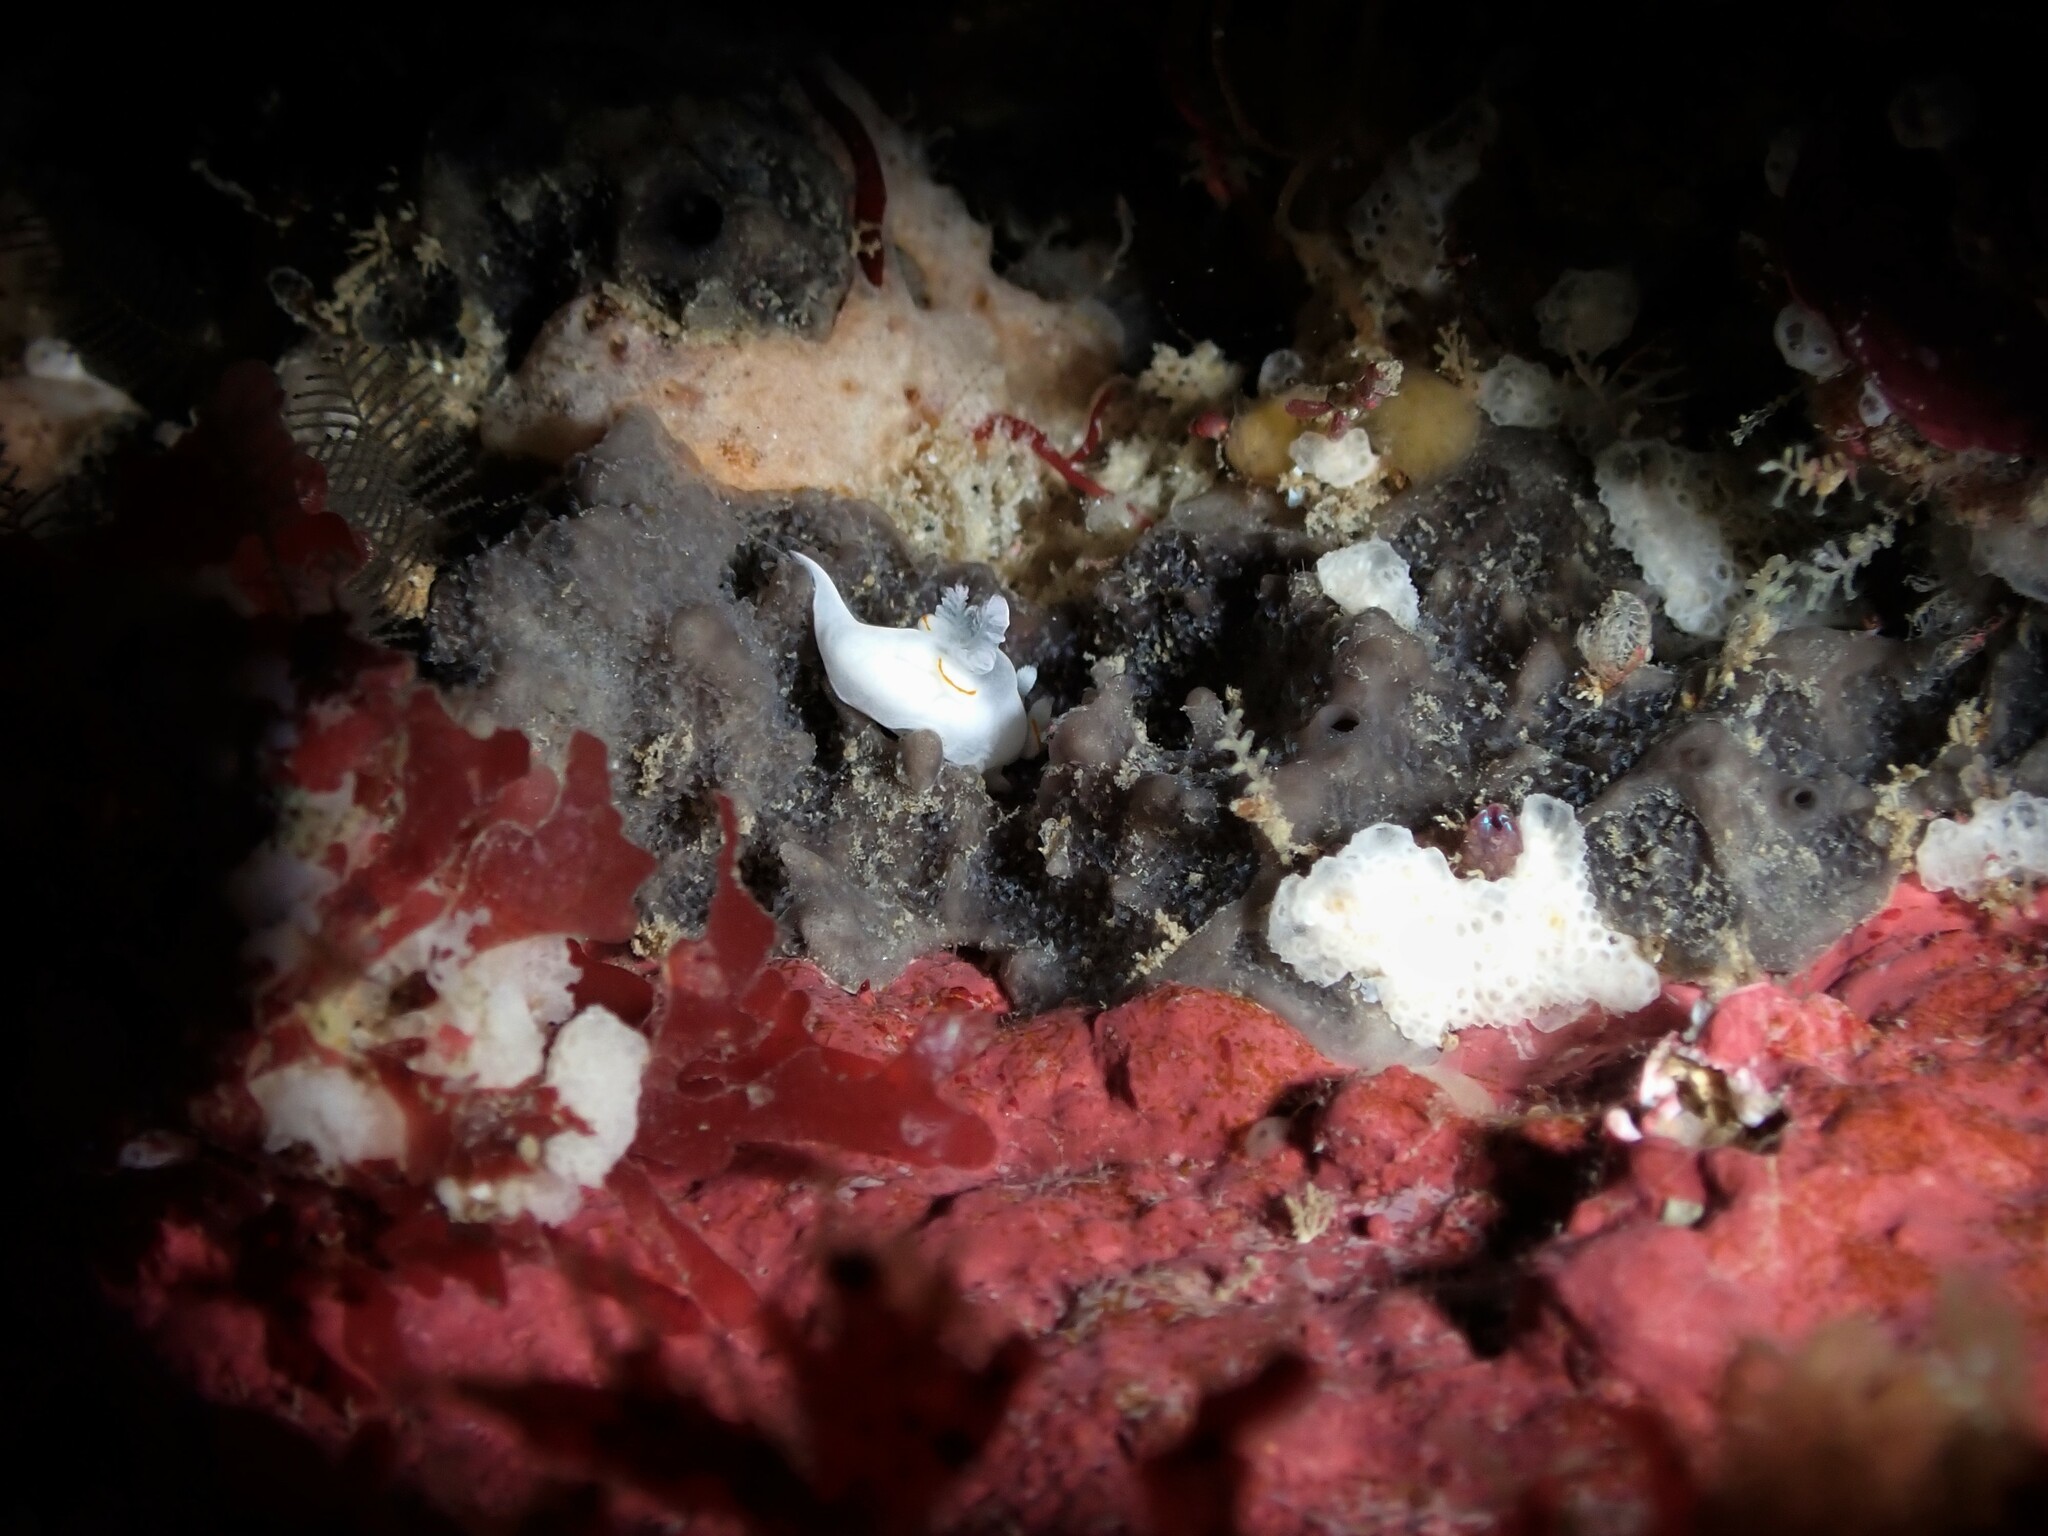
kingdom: Animalia
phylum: Mollusca
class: Gastropoda
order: Nudibranchia
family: Goniodorididae
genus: Trapania
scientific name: Trapania rudmani
